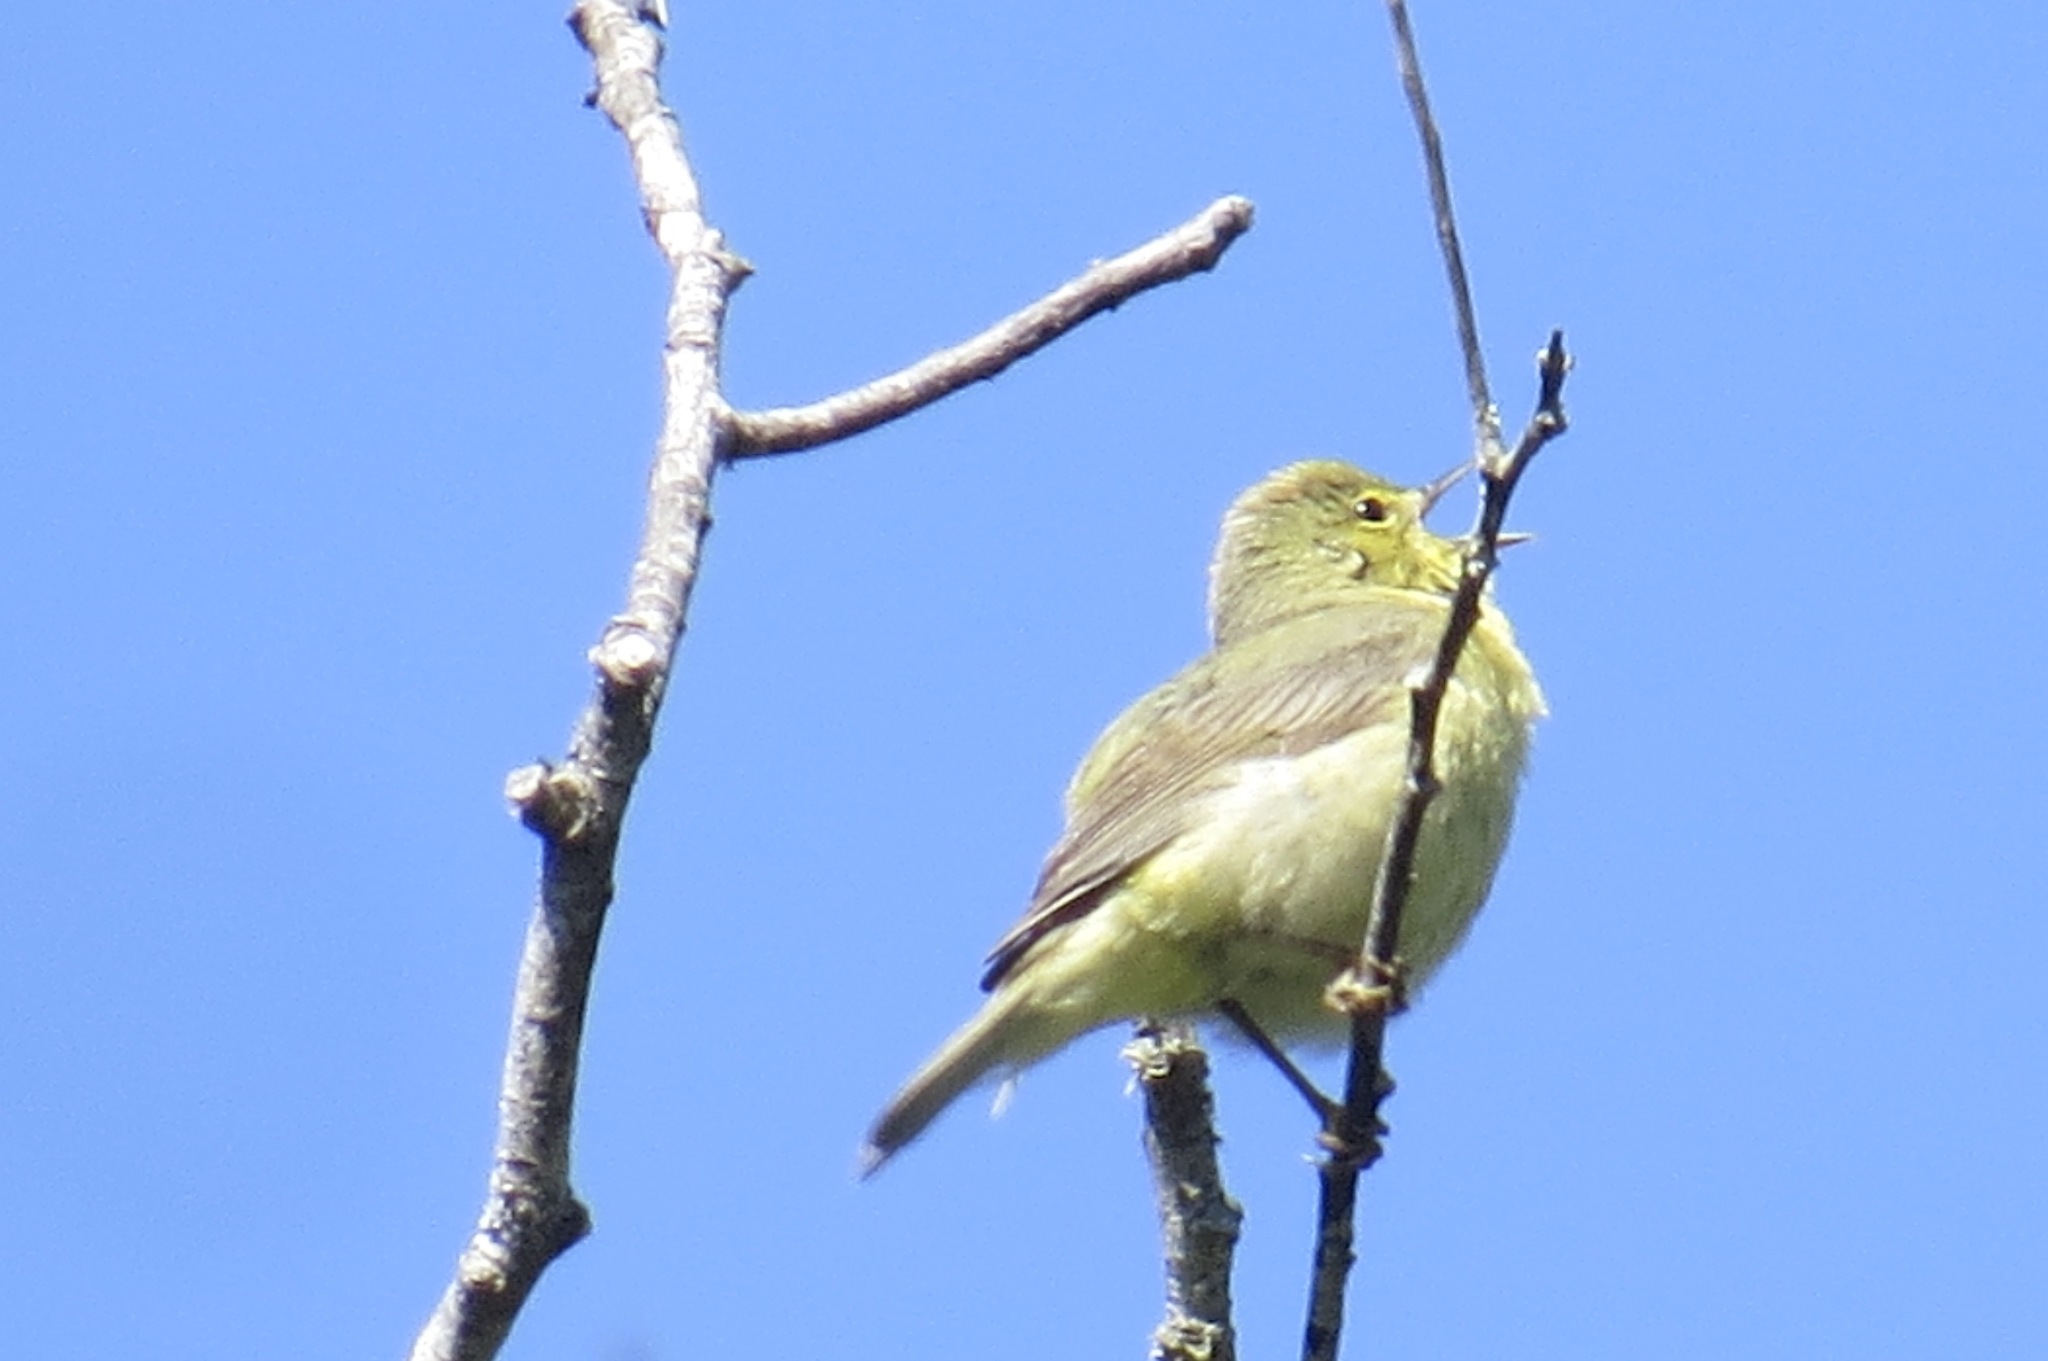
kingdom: Animalia
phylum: Chordata
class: Aves
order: Passeriformes
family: Parulidae
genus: Leiothlypis
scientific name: Leiothlypis celata
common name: Orange-crowned warbler
